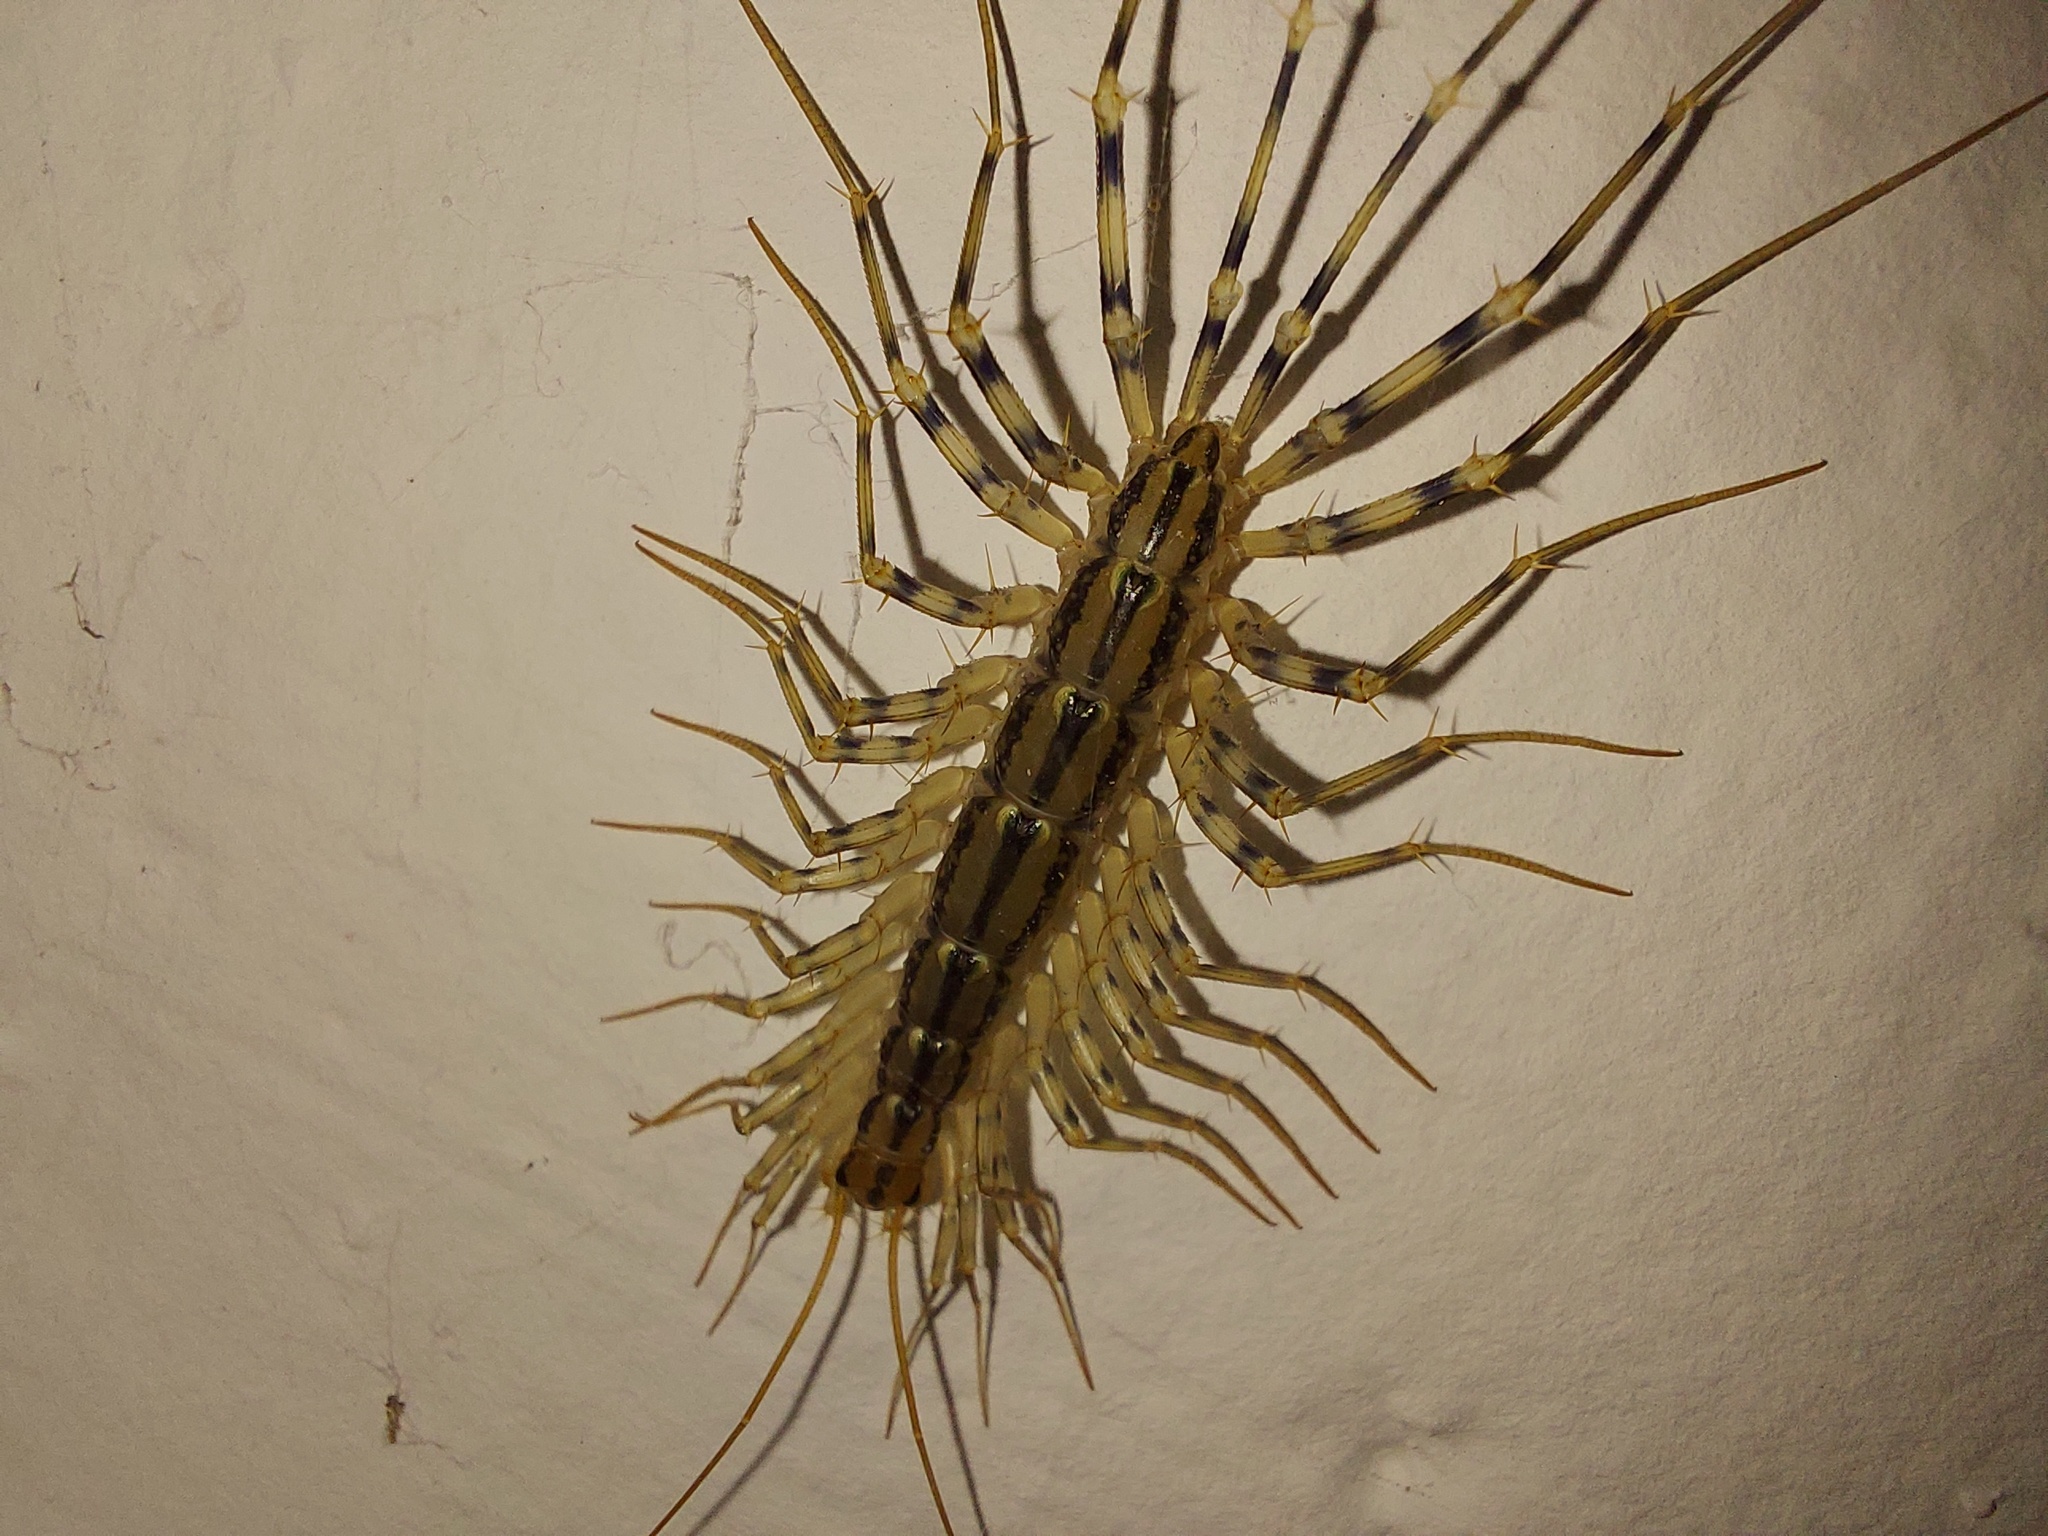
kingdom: Animalia
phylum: Arthropoda
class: Chilopoda
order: Scutigeromorpha
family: Scutigeridae
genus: Scutigera
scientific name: Scutigera coleoptrata
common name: House centipede
